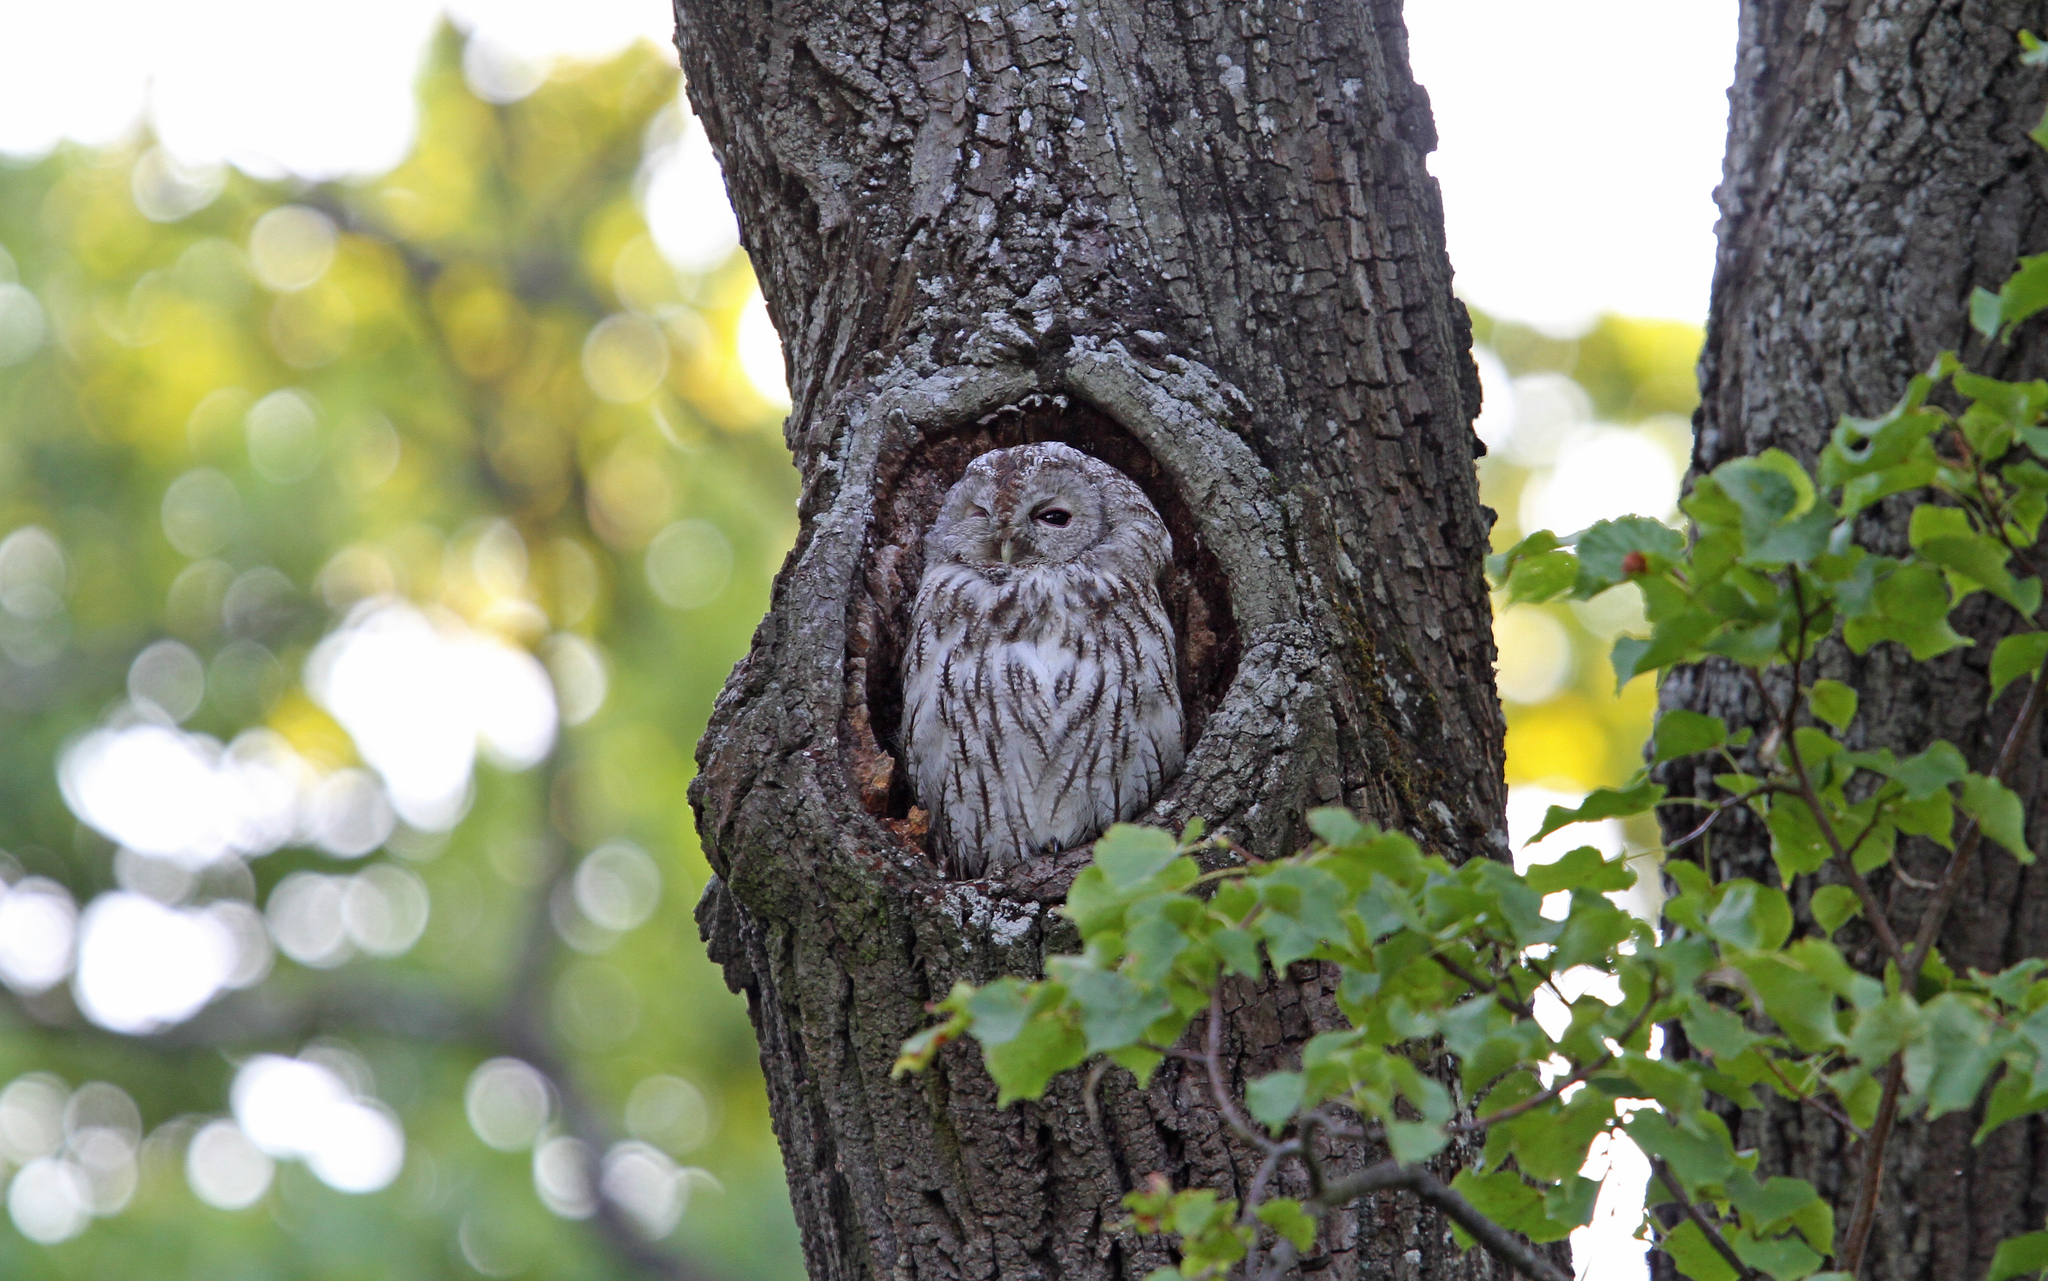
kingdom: Animalia
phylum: Chordata
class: Aves
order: Strigiformes
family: Strigidae
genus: Strix
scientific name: Strix aluco
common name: Tawny owl
